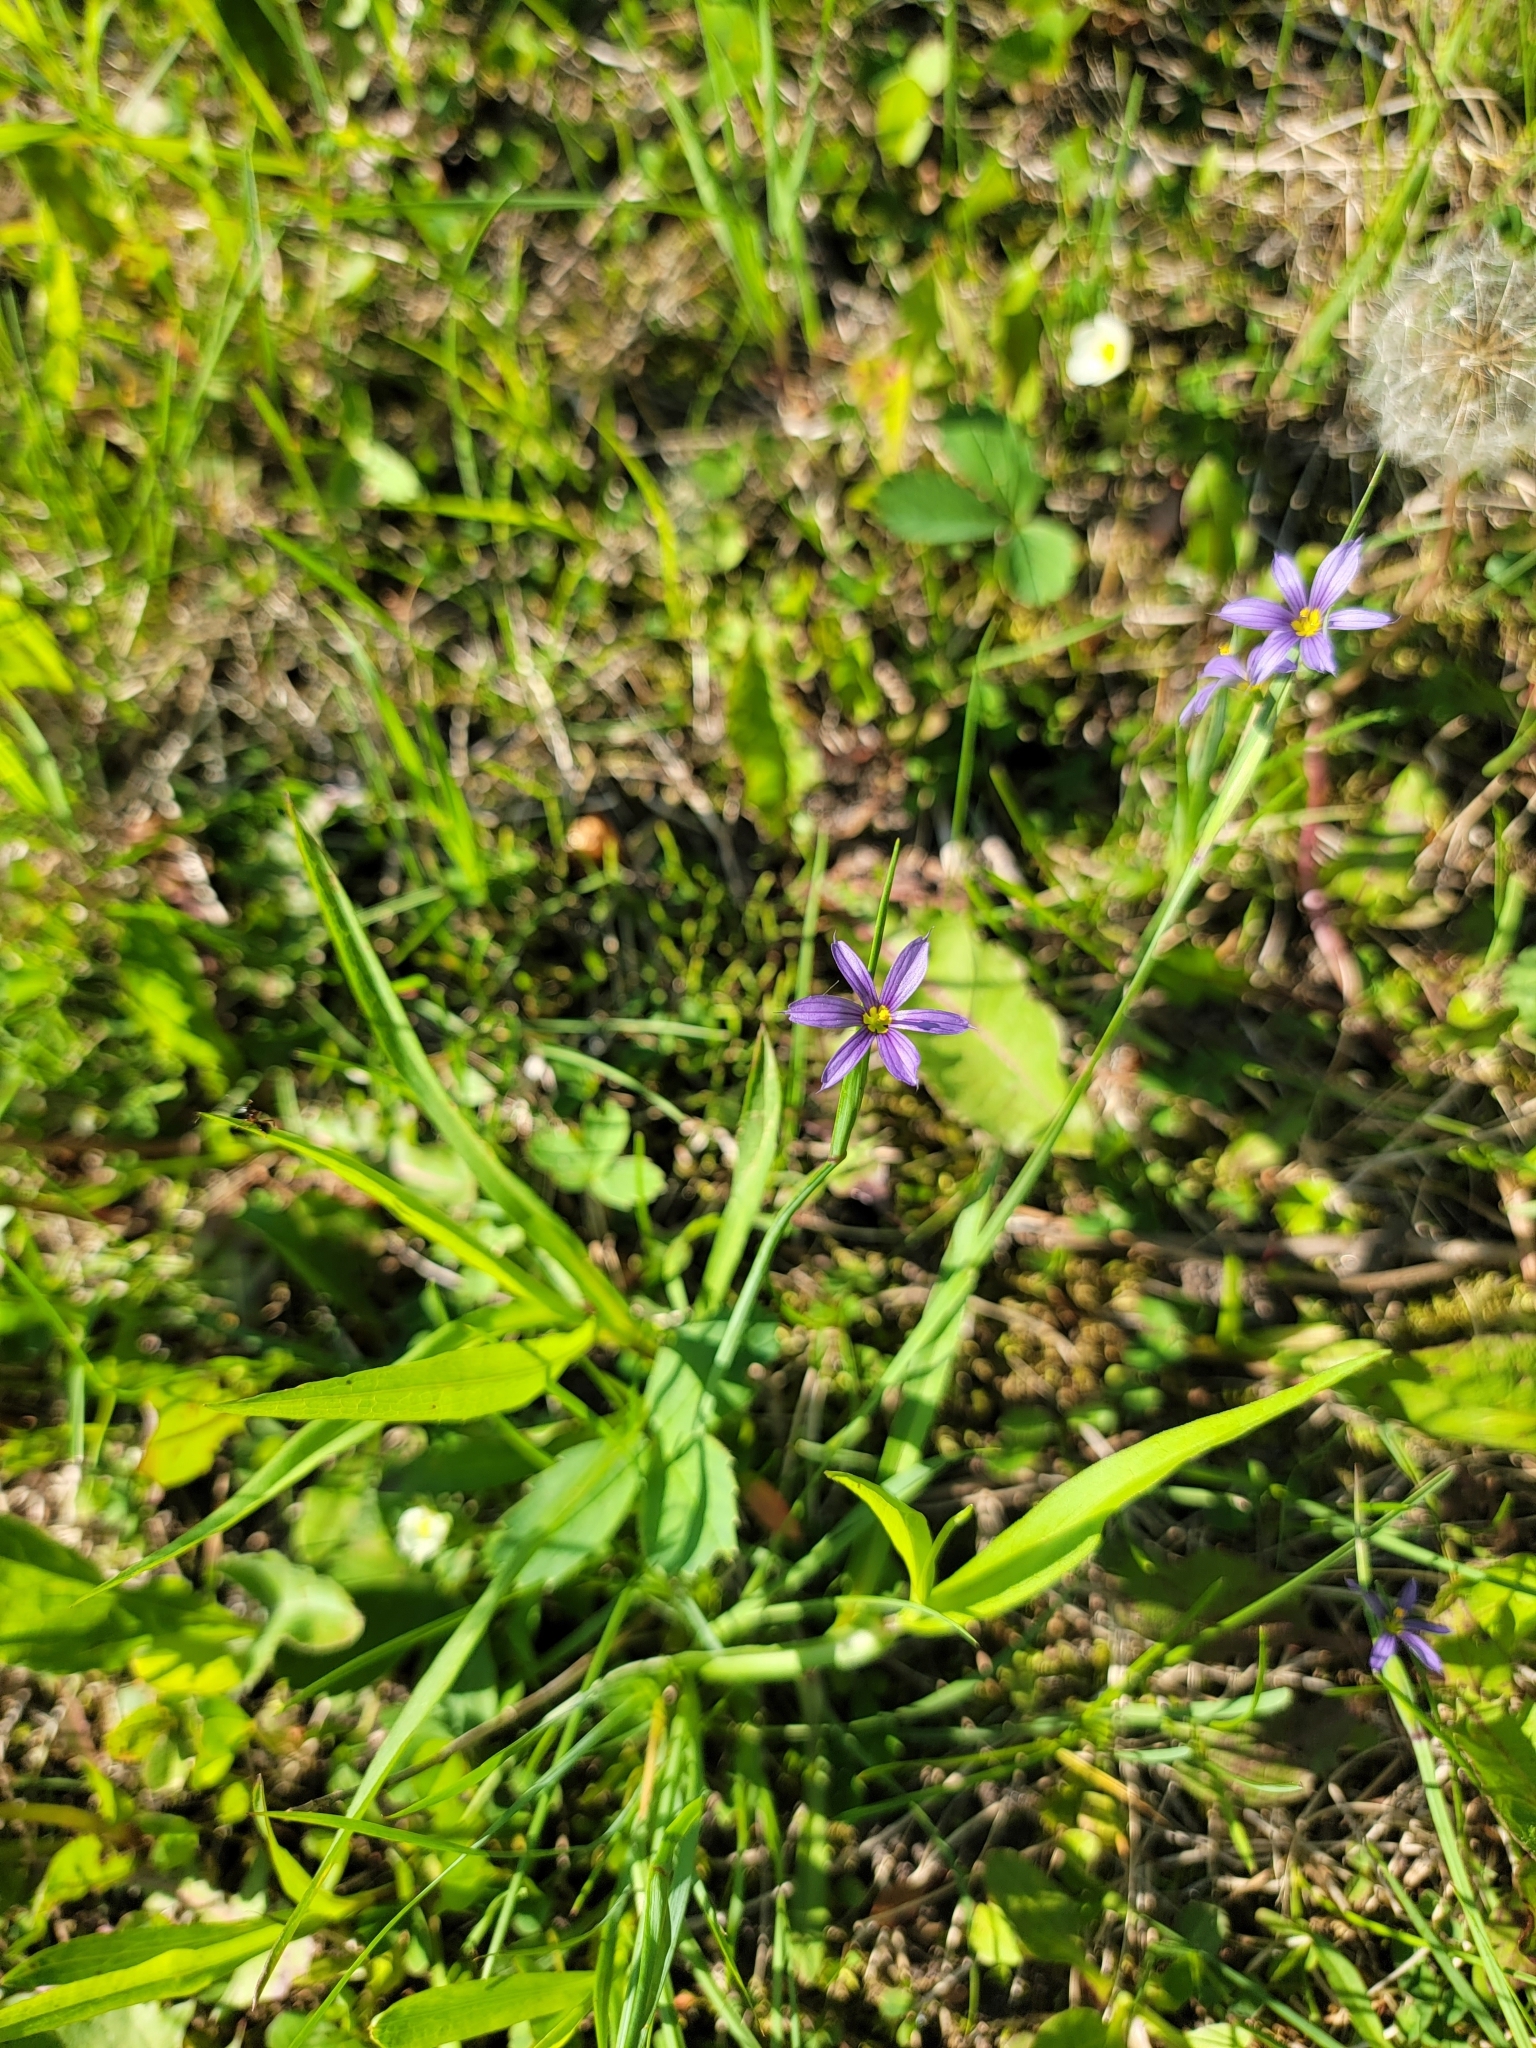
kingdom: Plantae
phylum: Tracheophyta
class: Liliopsida
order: Asparagales
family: Iridaceae
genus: Sisyrinchium
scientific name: Sisyrinchium montanum
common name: American blue-eyed-grass
